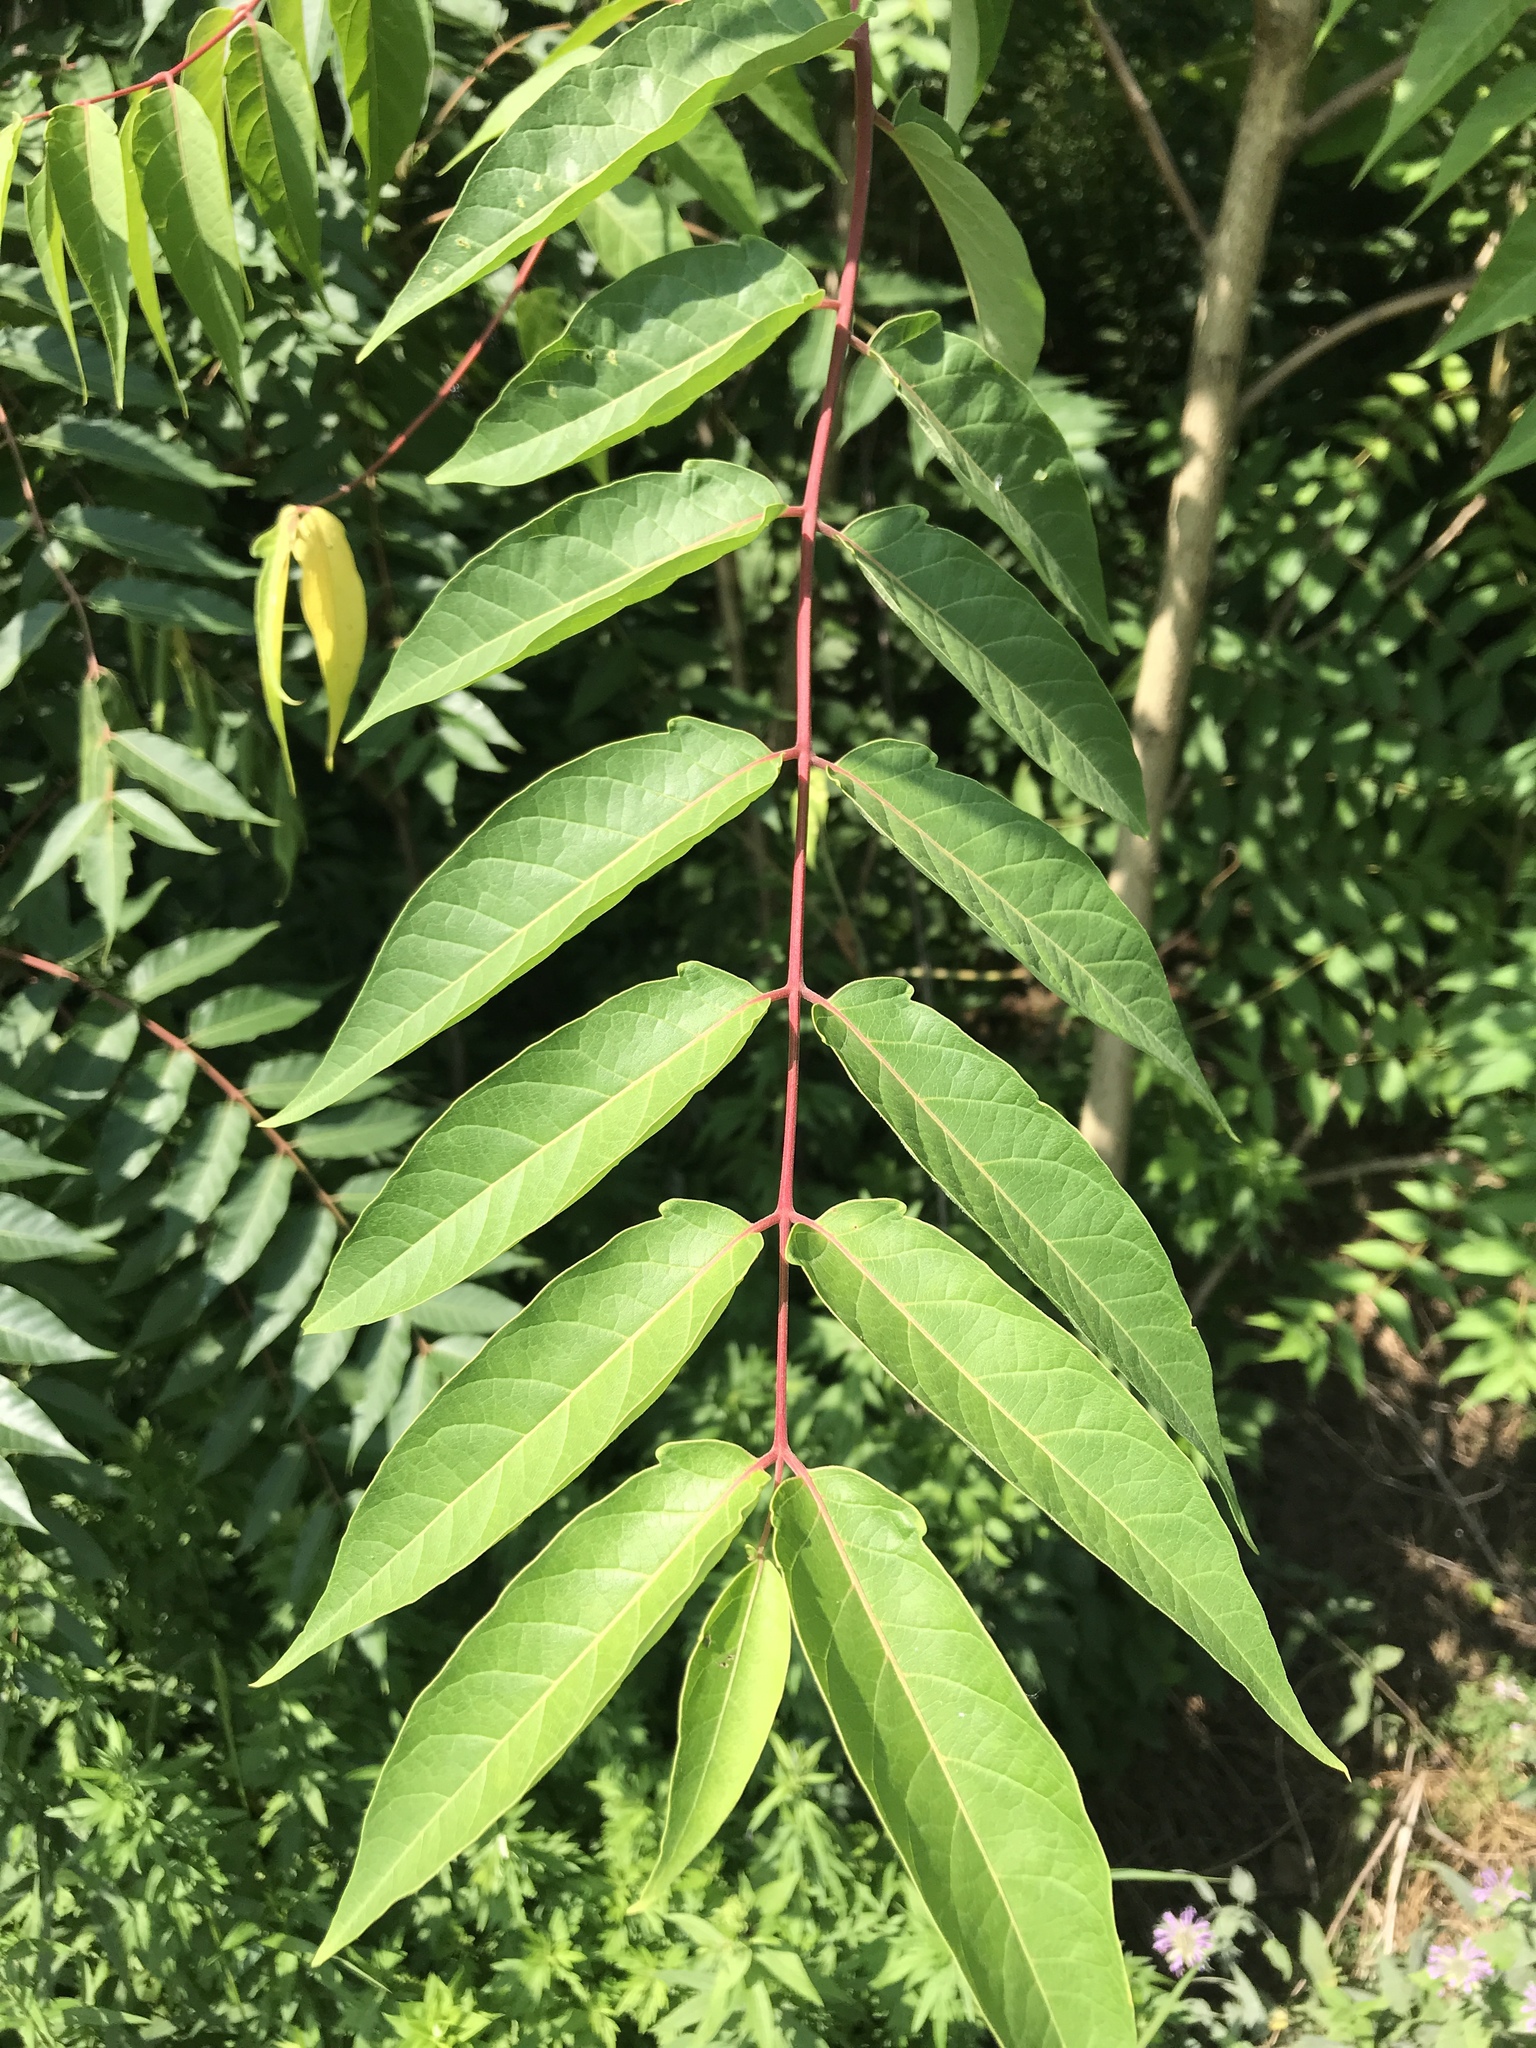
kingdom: Plantae
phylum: Tracheophyta
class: Magnoliopsida
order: Sapindales
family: Simaroubaceae
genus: Ailanthus
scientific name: Ailanthus altissima
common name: Tree-of-heaven
